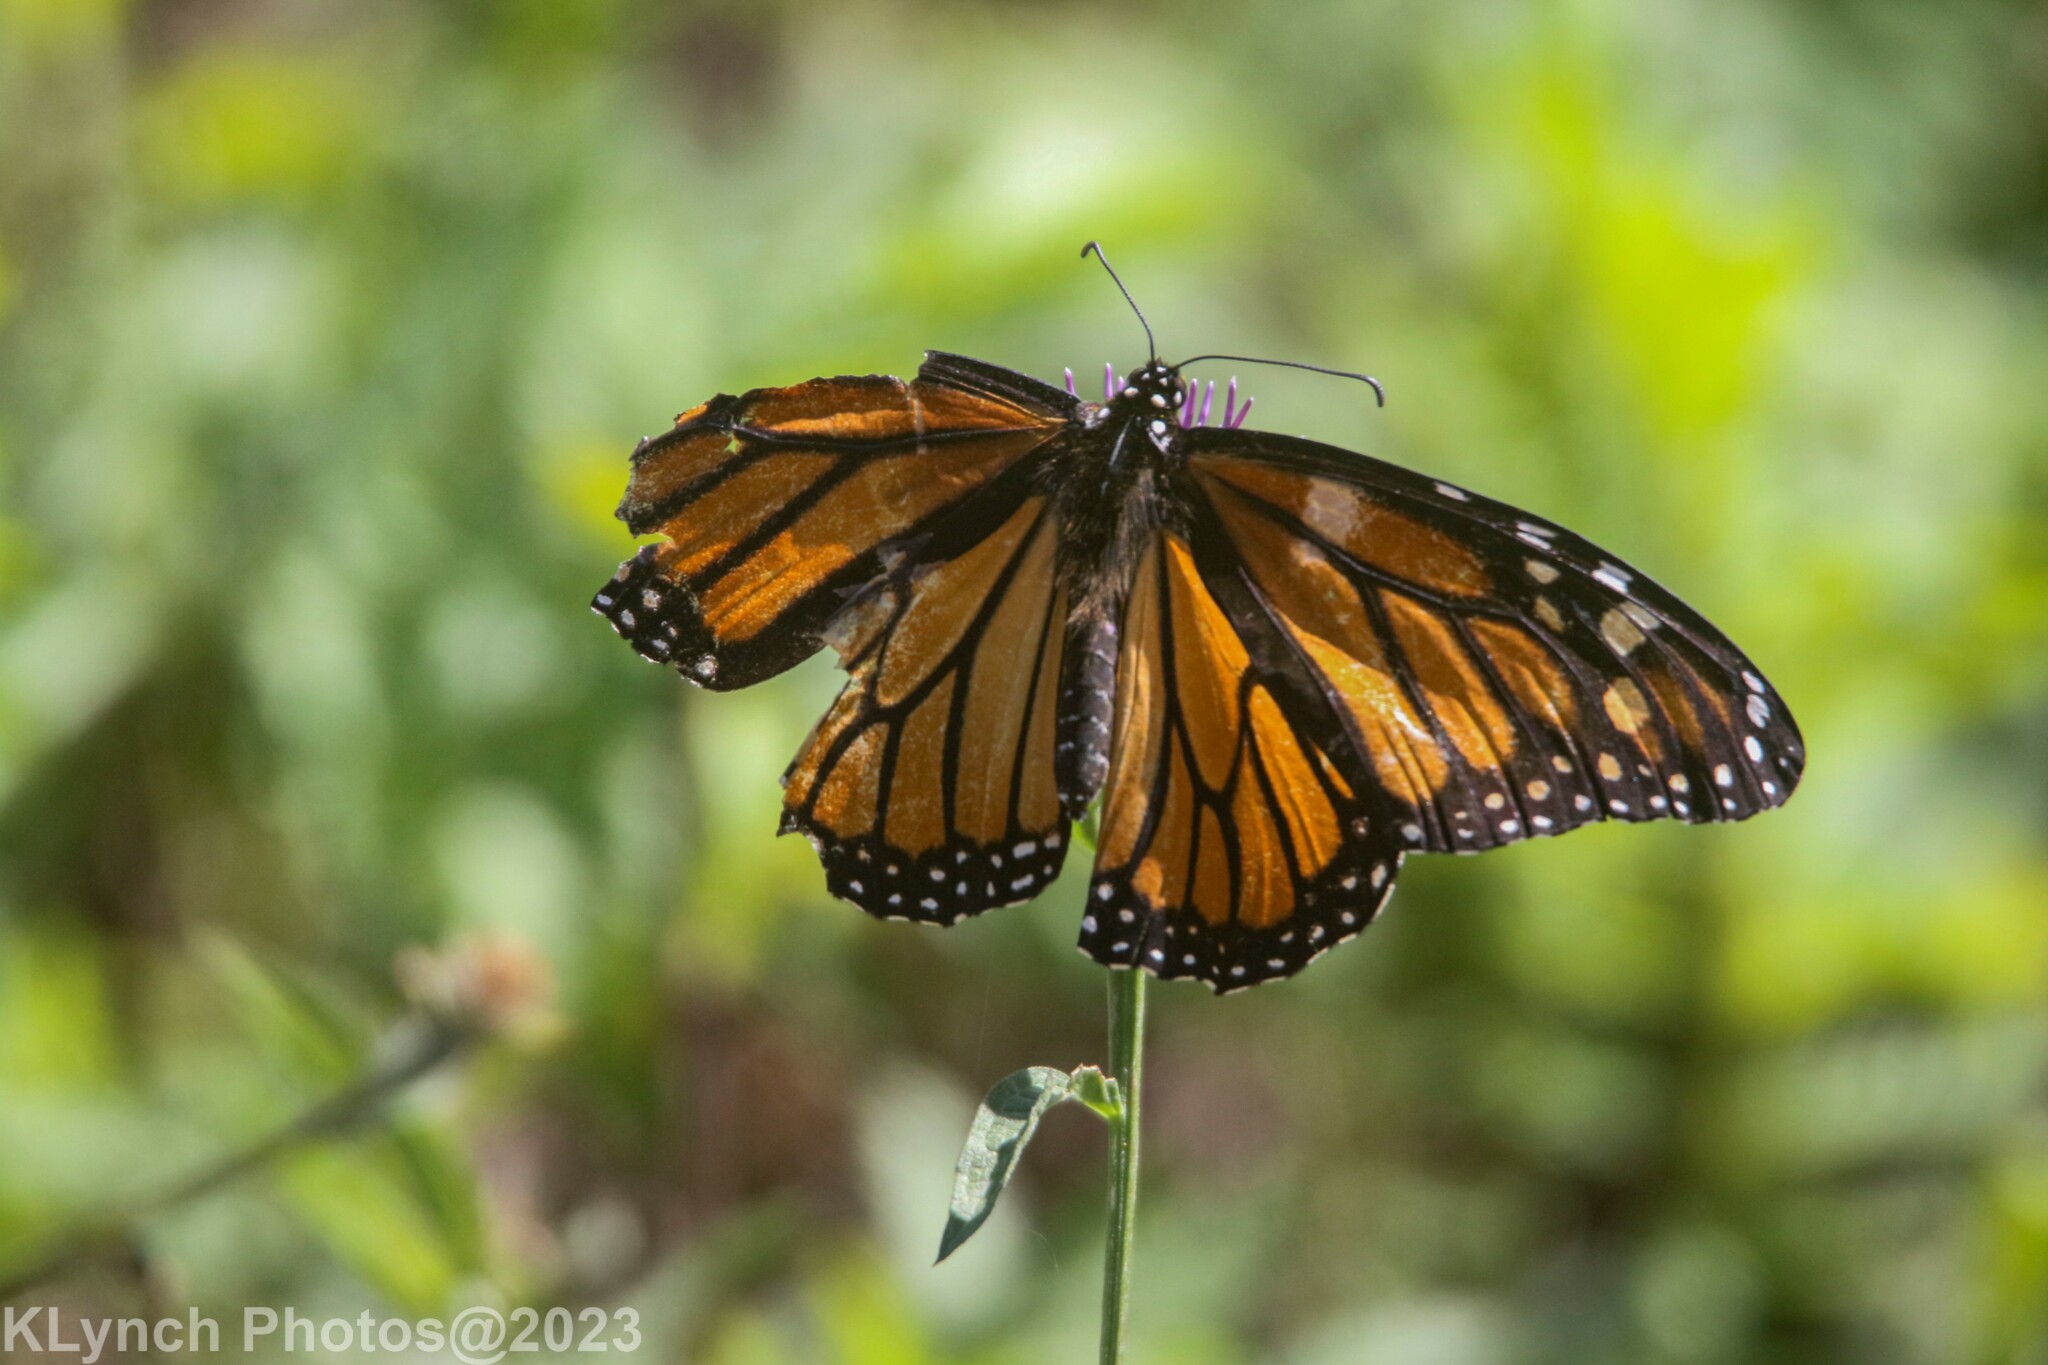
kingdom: Animalia
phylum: Arthropoda
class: Insecta
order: Lepidoptera
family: Nymphalidae
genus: Danaus
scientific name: Danaus plexippus
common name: Monarch
